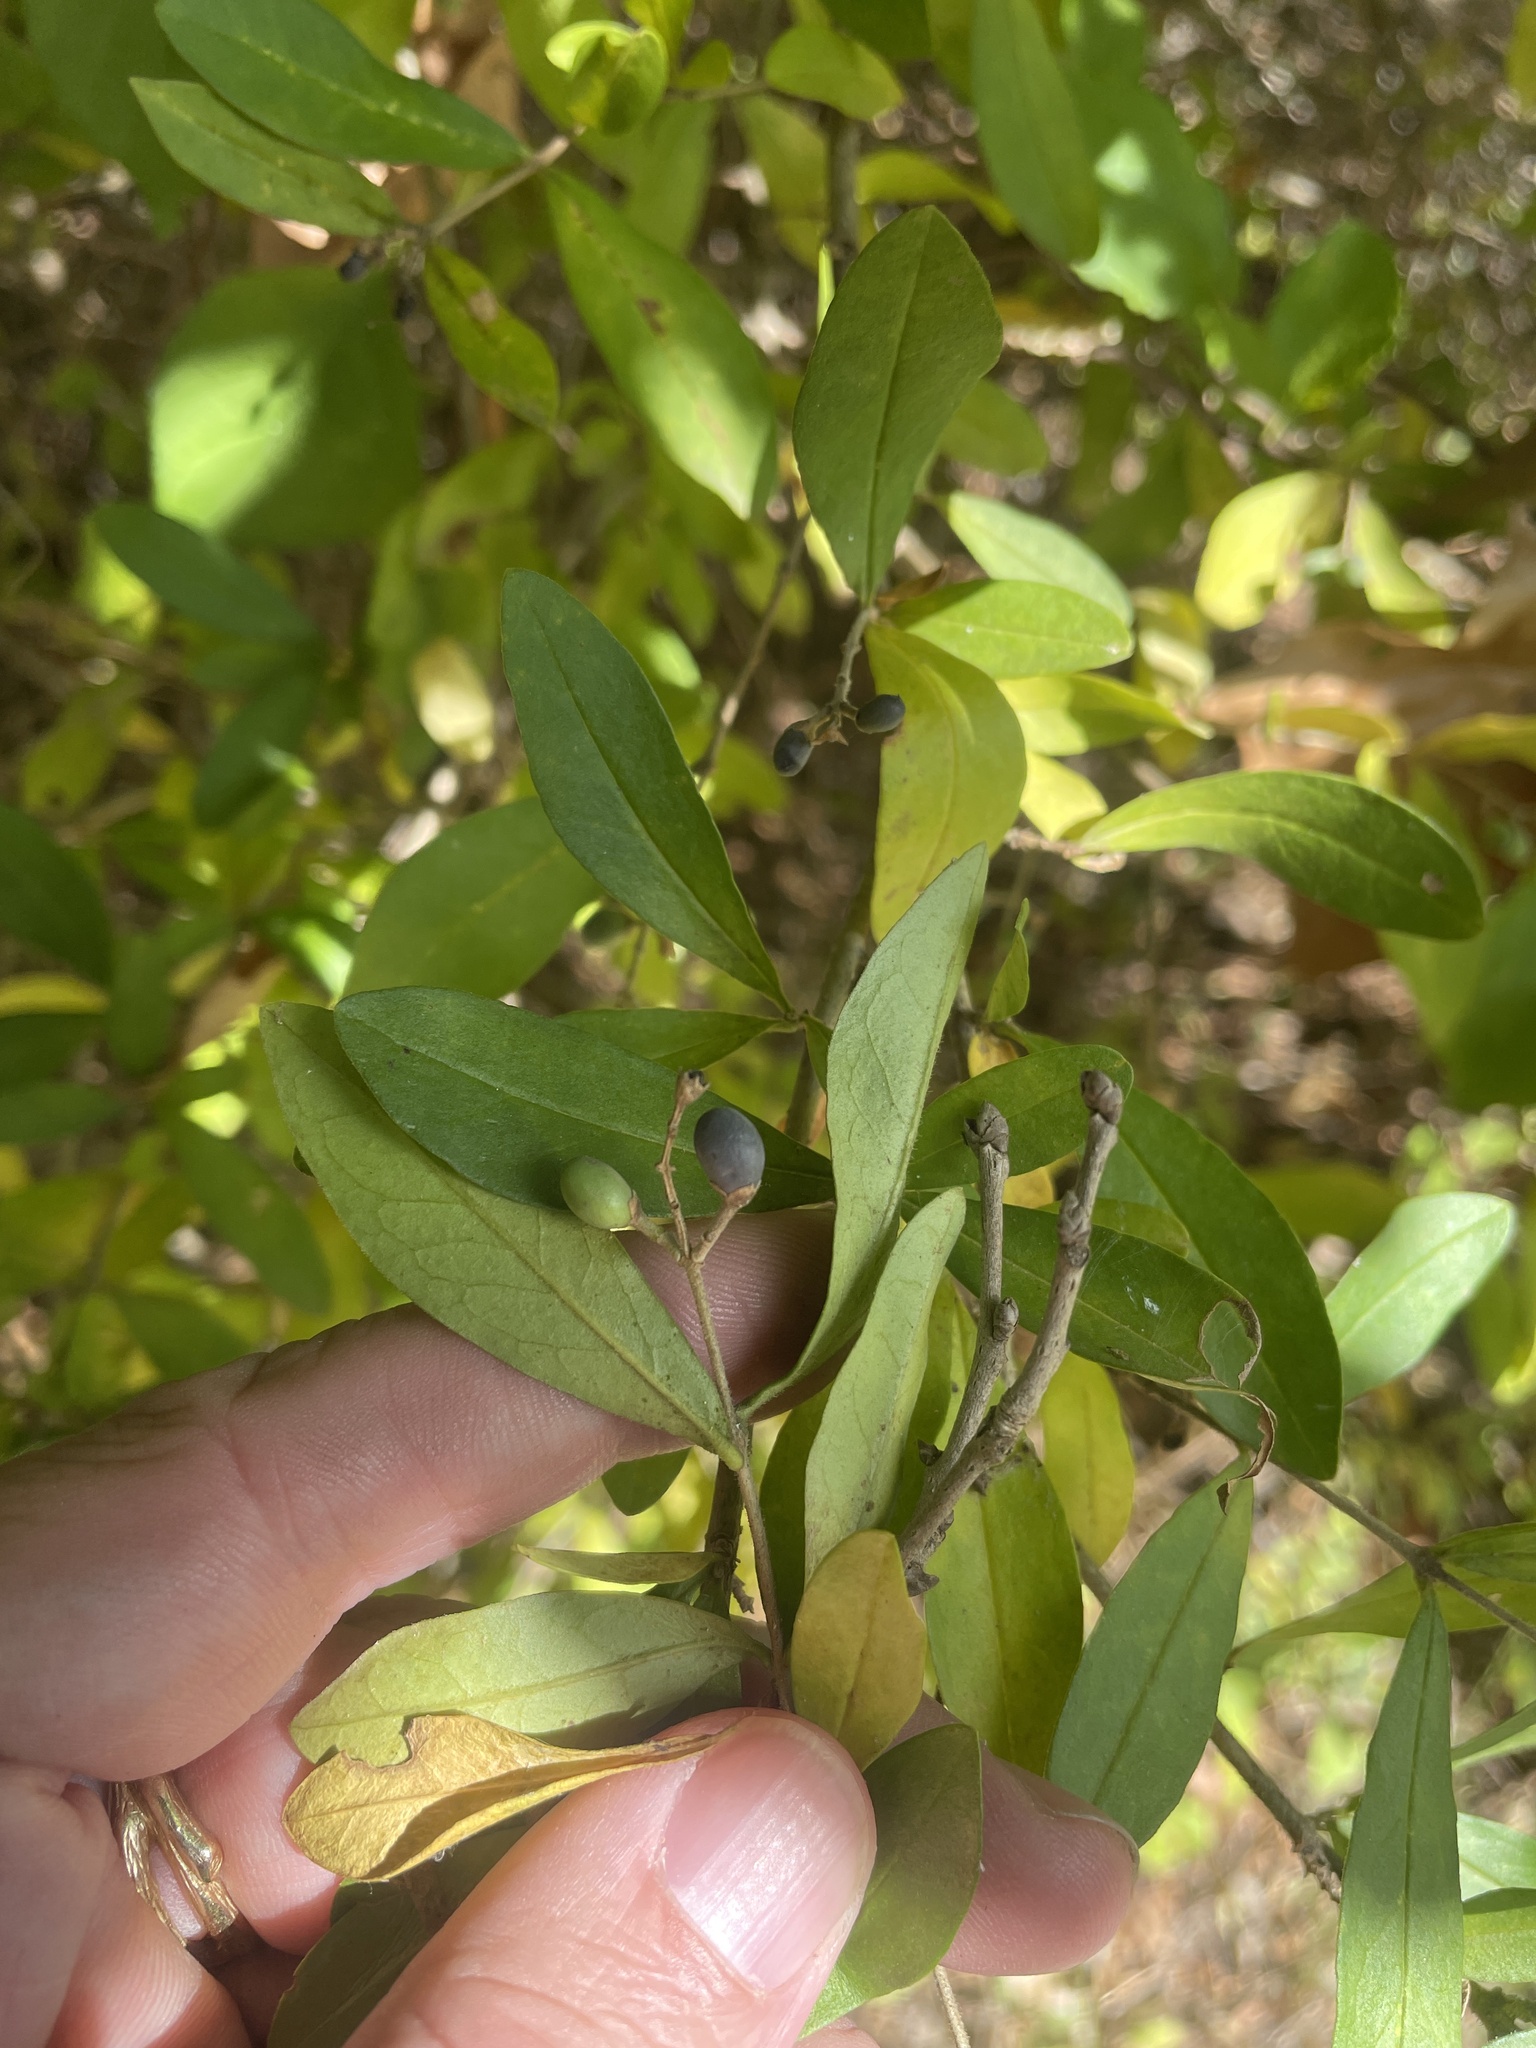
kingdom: Plantae
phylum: Tracheophyta
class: Magnoliopsida
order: Lamiales
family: Oleaceae
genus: Ligustrum
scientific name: Ligustrum obtusifolium
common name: Border privet
